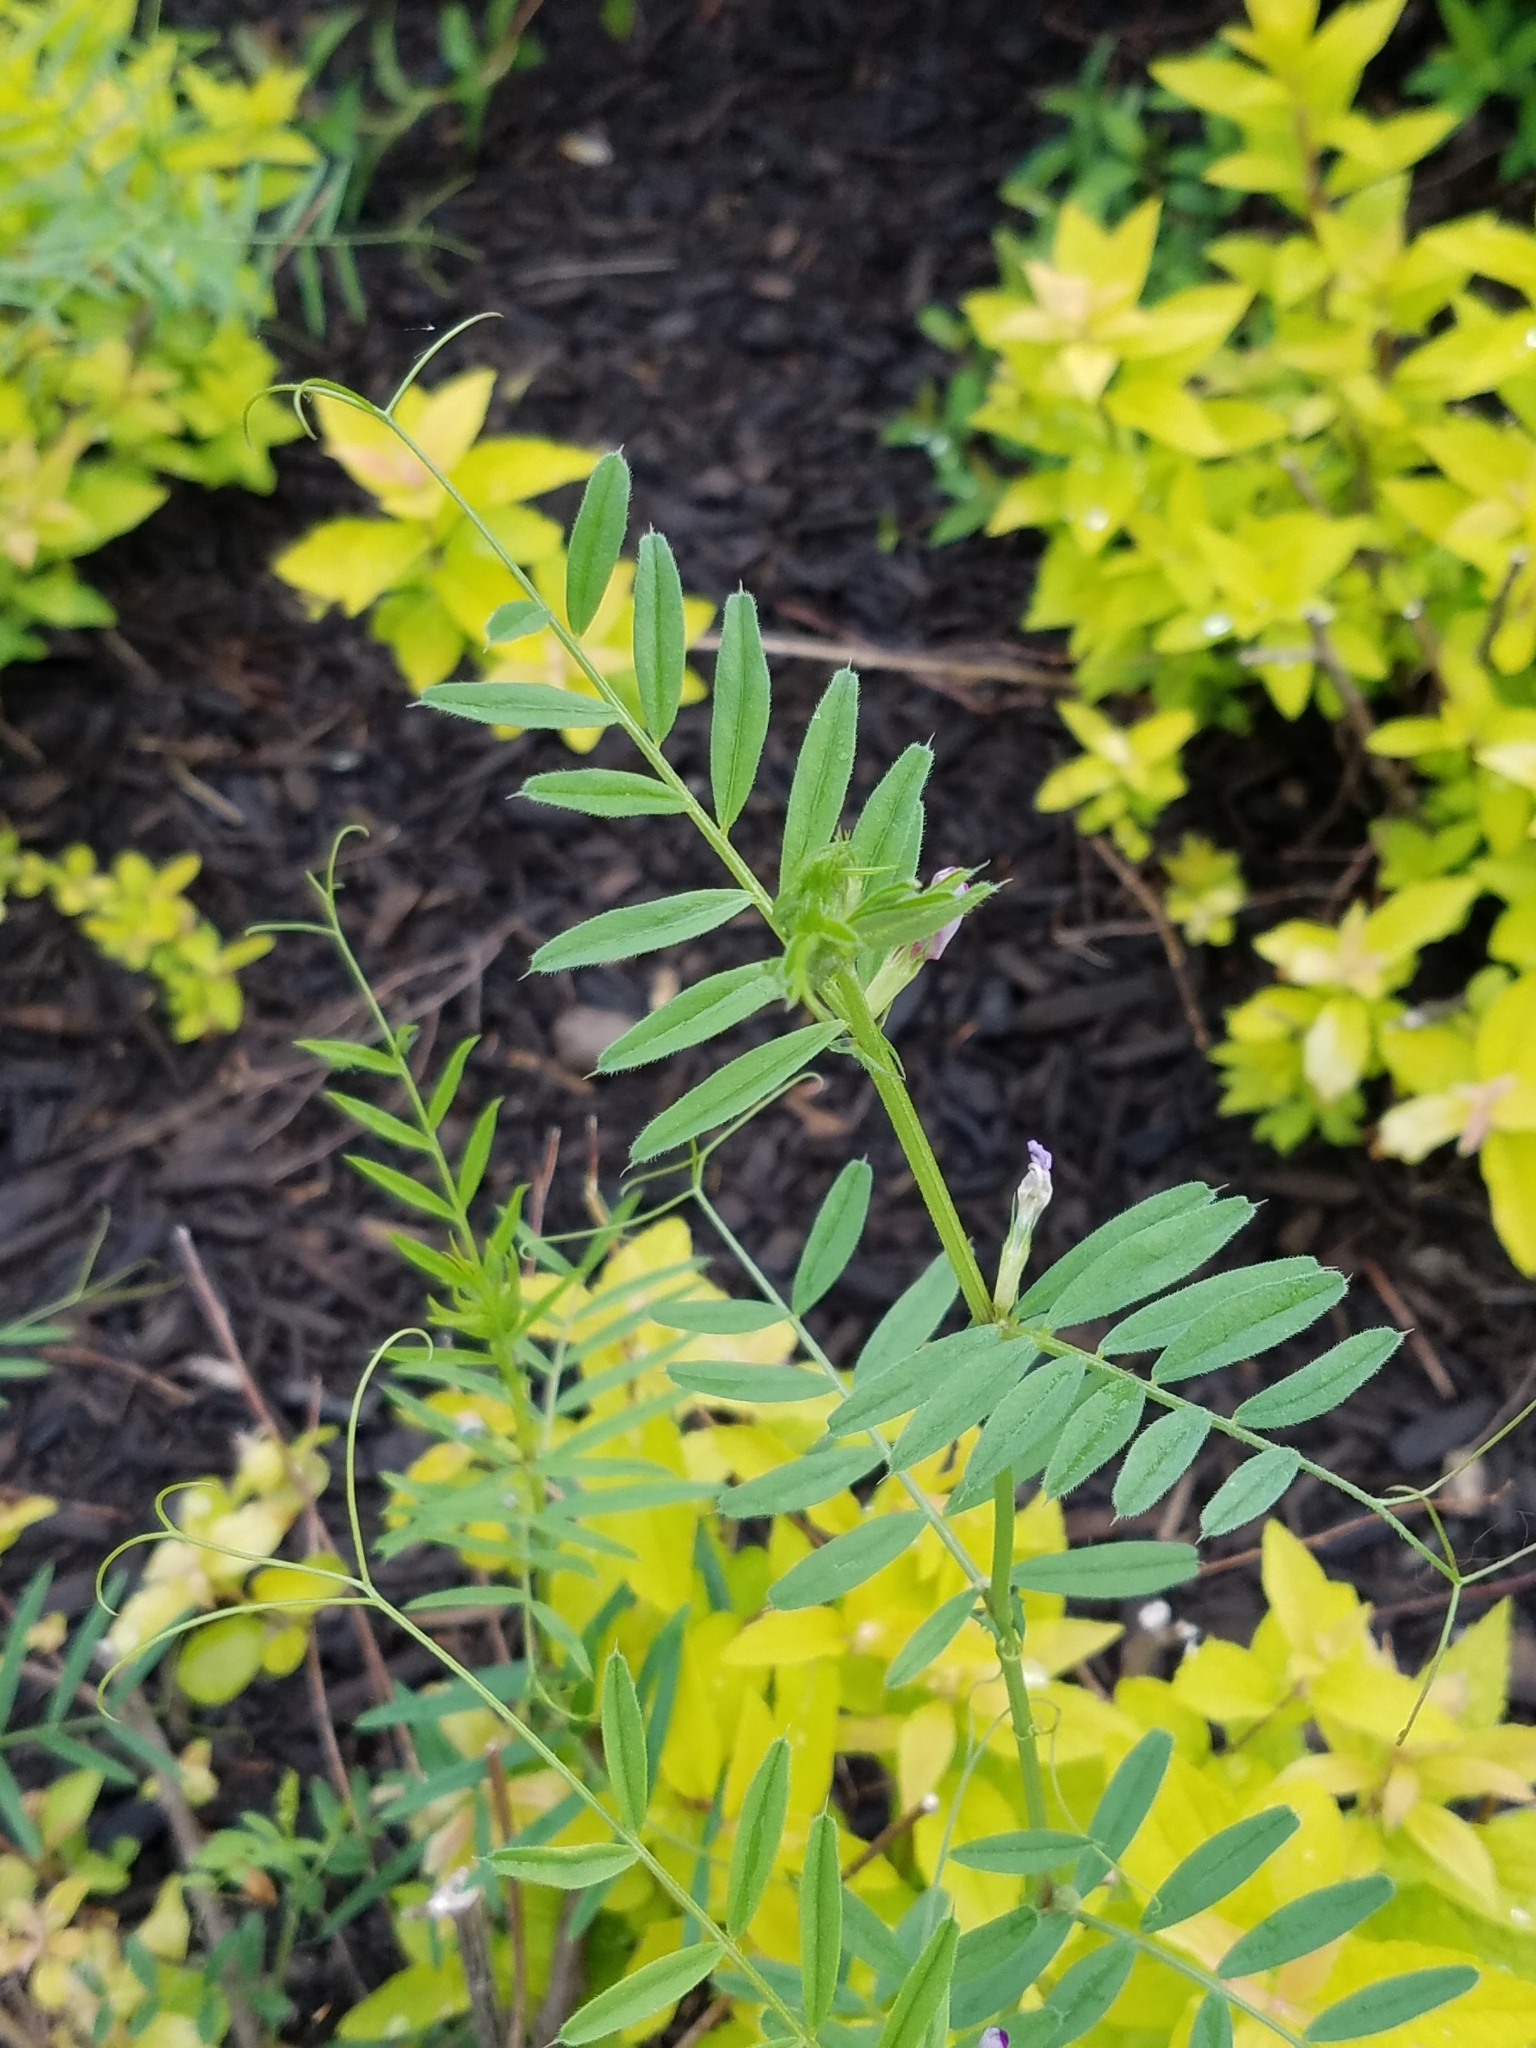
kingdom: Plantae
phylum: Tracheophyta
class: Magnoliopsida
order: Fabales
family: Fabaceae
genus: Vicia
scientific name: Vicia sativa
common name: Garden vetch
